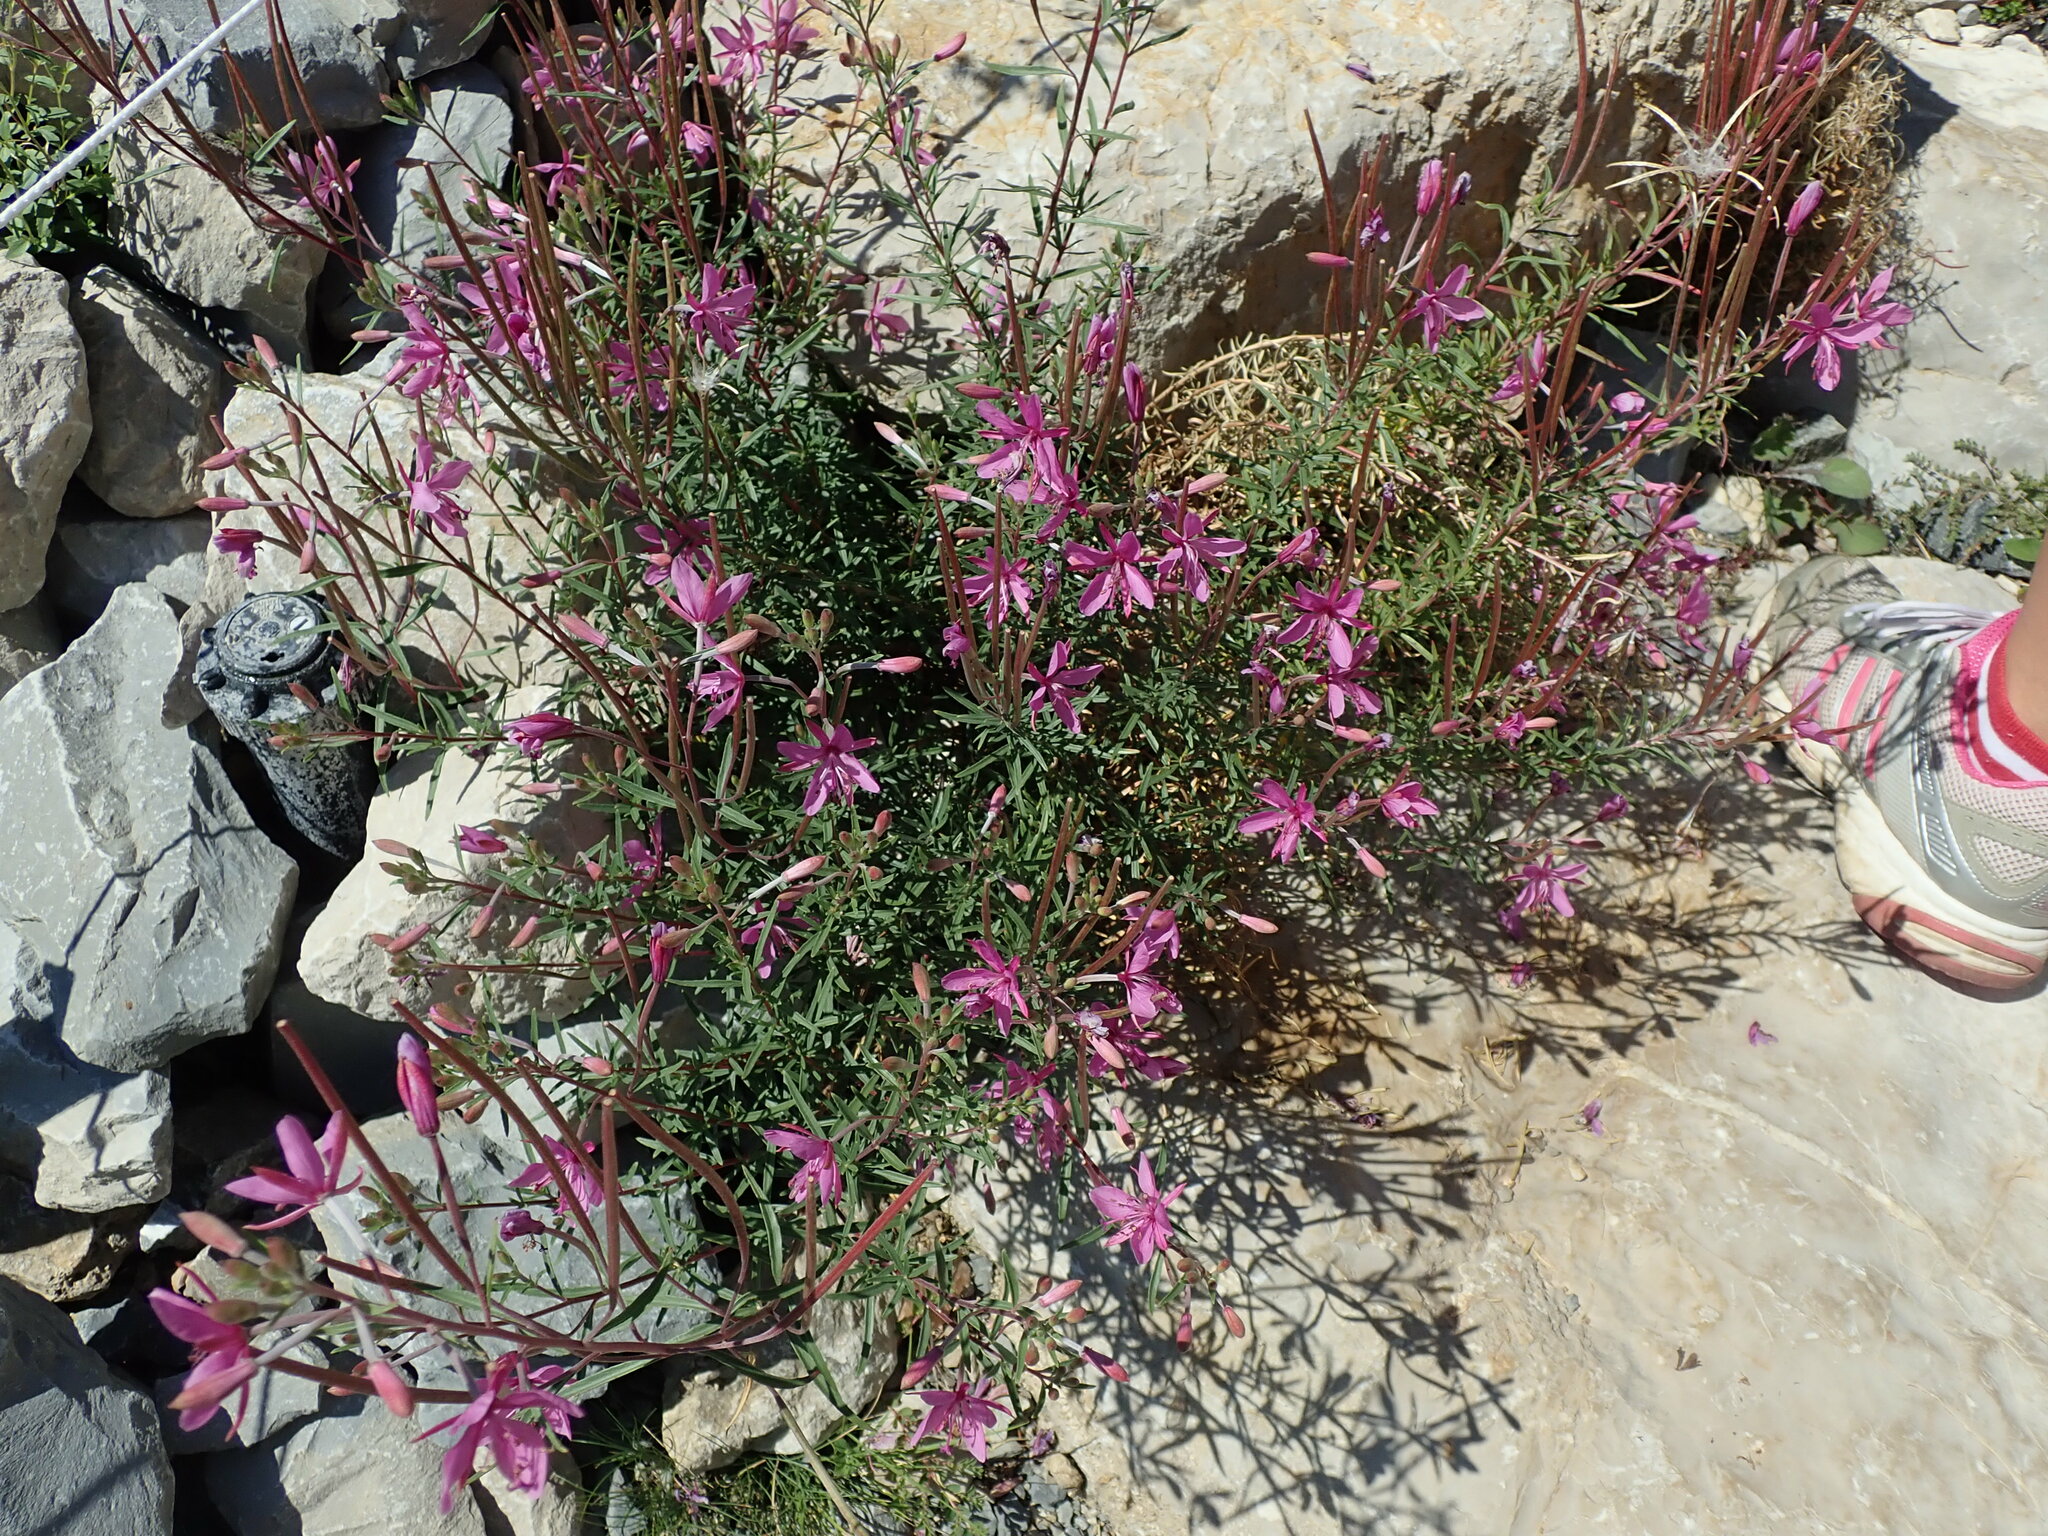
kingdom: Plantae
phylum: Tracheophyta
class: Magnoliopsida
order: Myrtales
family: Onagraceae
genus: Chamaenerion
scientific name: Chamaenerion dodonaei
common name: Rosemary-leaved willowherb
